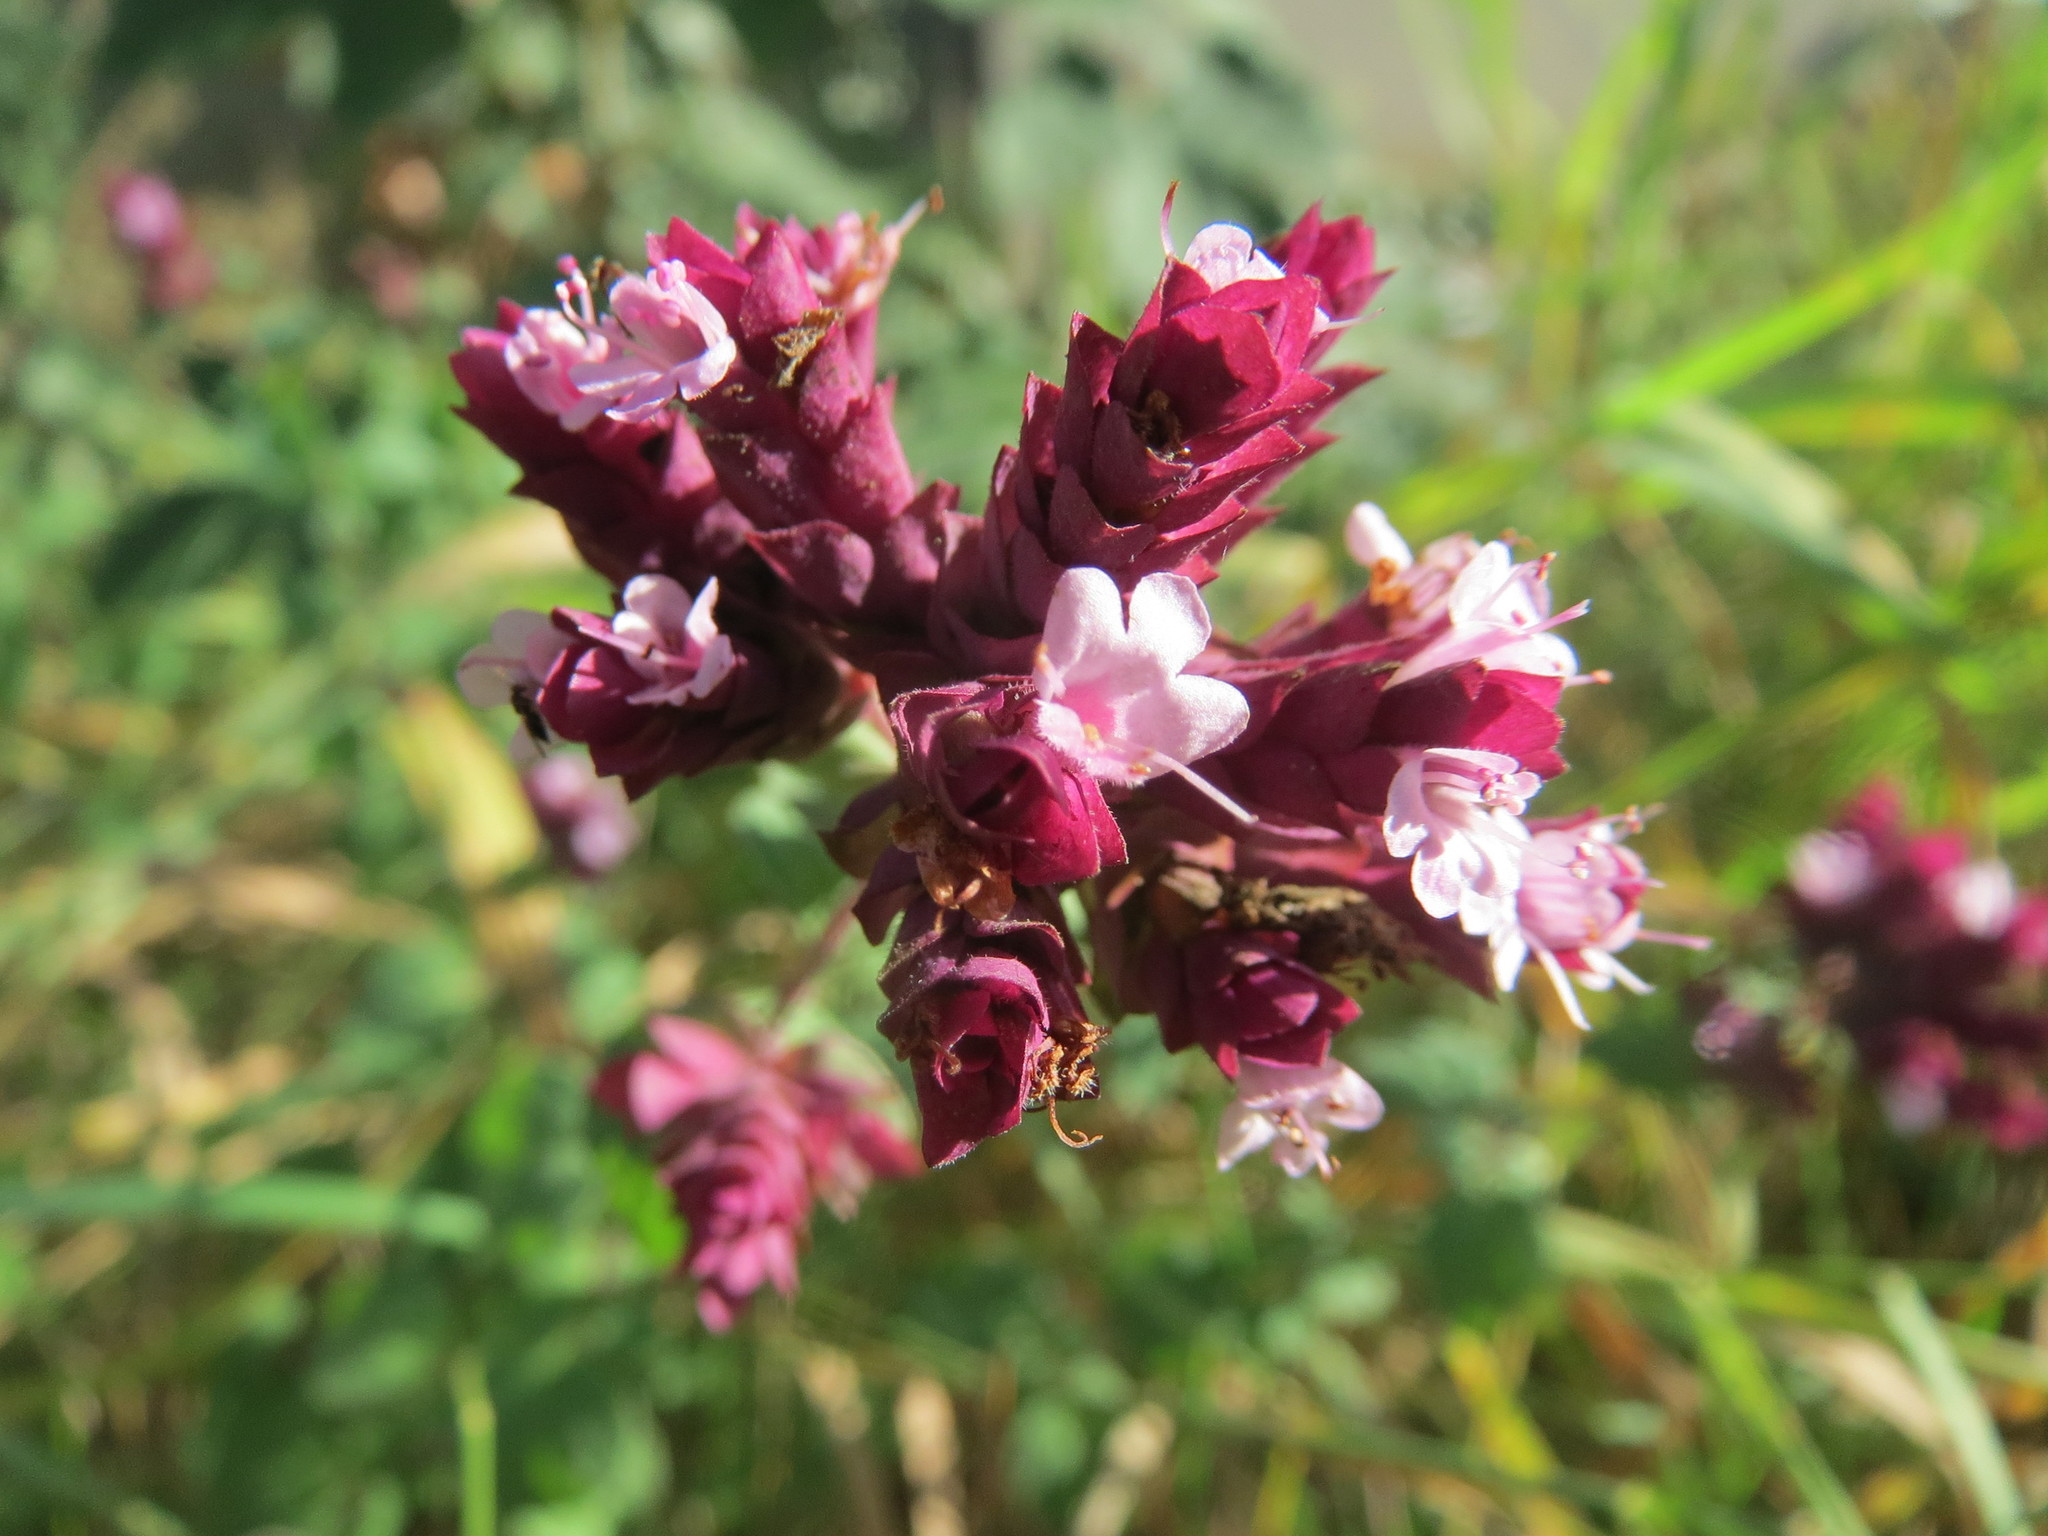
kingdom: Plantae
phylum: Tracheophyta
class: Magnoliopsida
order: Lamiales
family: Lamiaceae
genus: Origanum
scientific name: Origanum vulgare
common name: Wild marjoram
